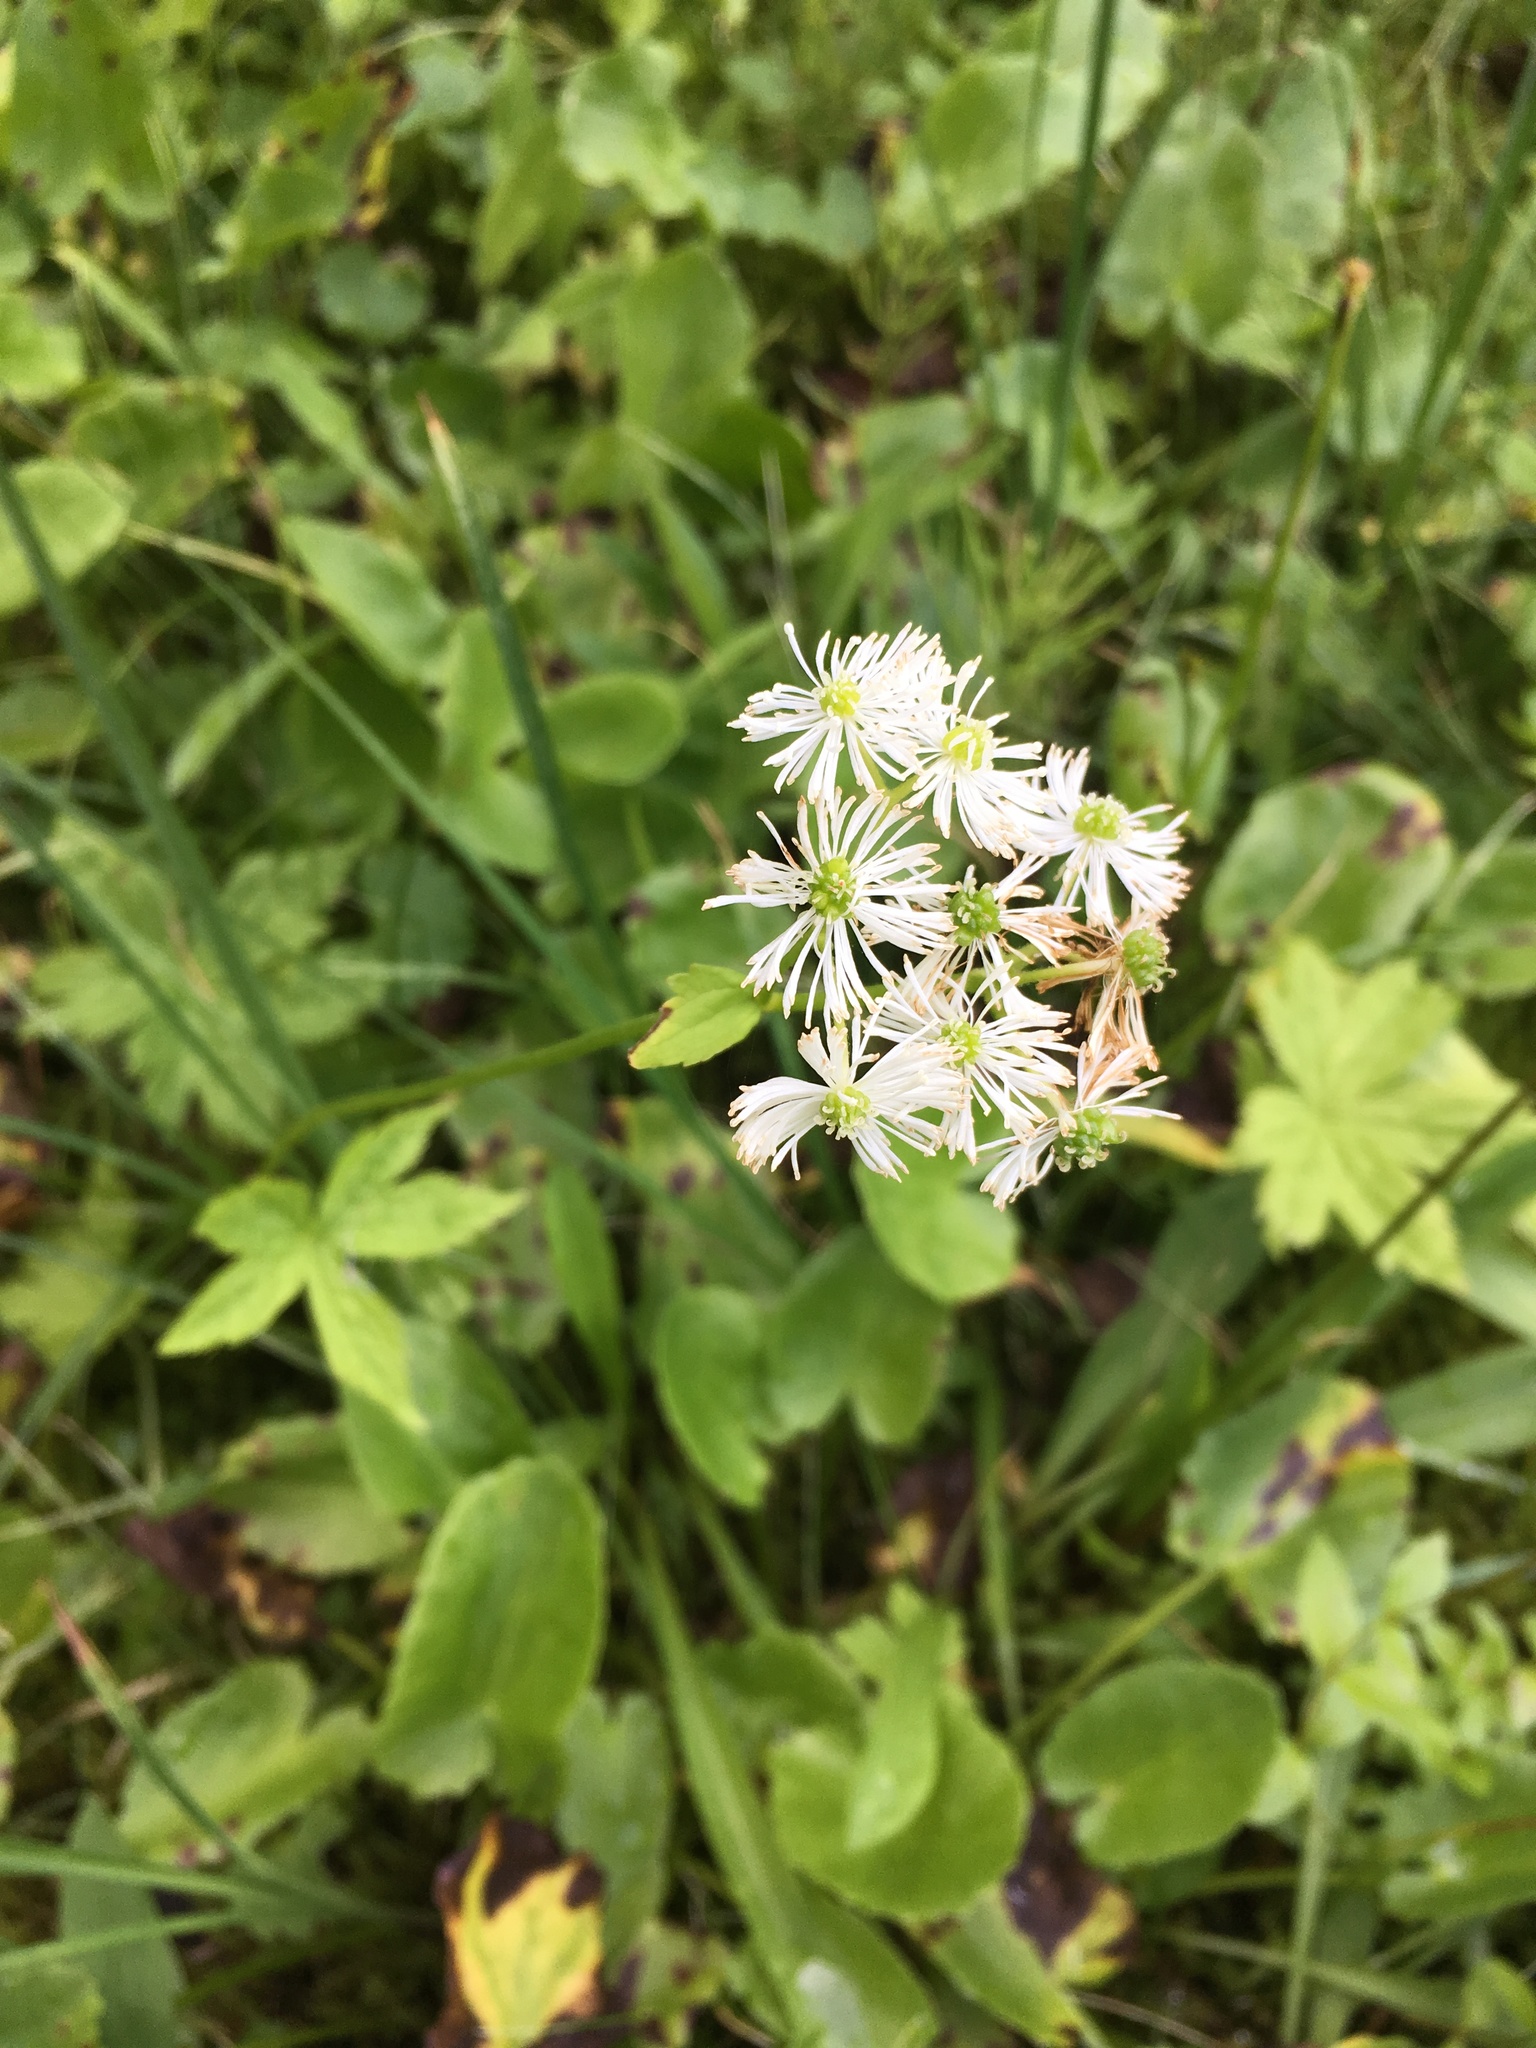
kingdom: Plantae
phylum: Tracheophyta
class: Magnoliopsida
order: Ranunculales
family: Ranunculaceae
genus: Trautvetteria
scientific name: Trautvetteria carolinensis
